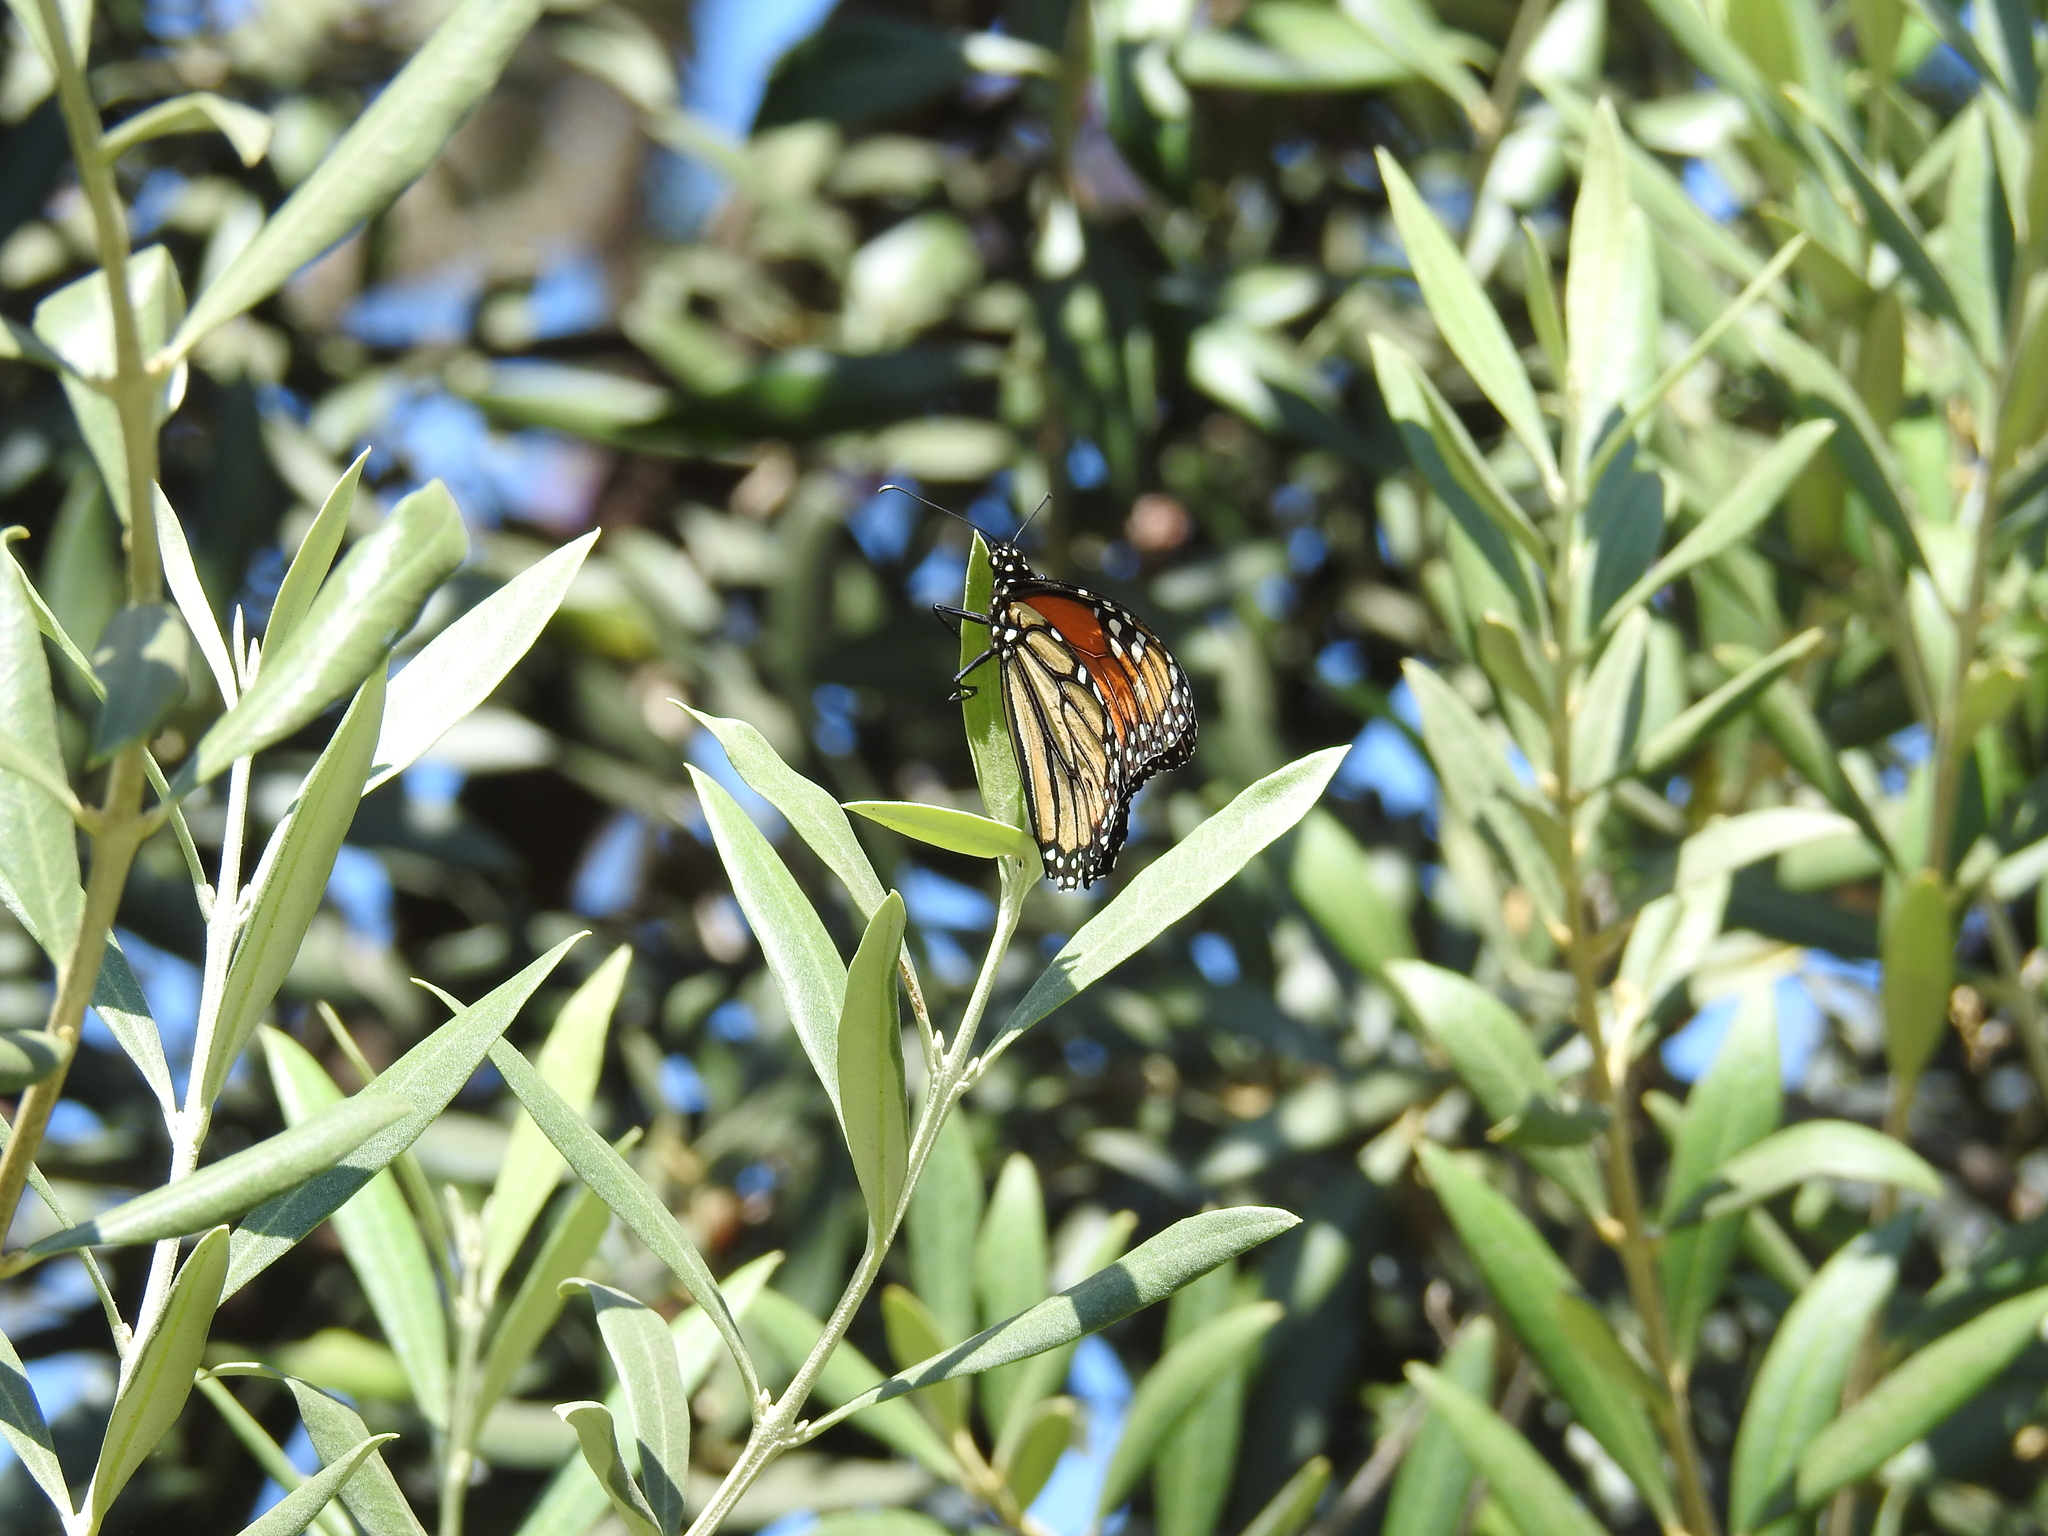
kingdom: Animalia
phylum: Arthropoda
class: Insecta
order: Lepidoptera
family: Nymphalidae
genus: Danaus
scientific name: Danaus plexippus
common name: Monarch
